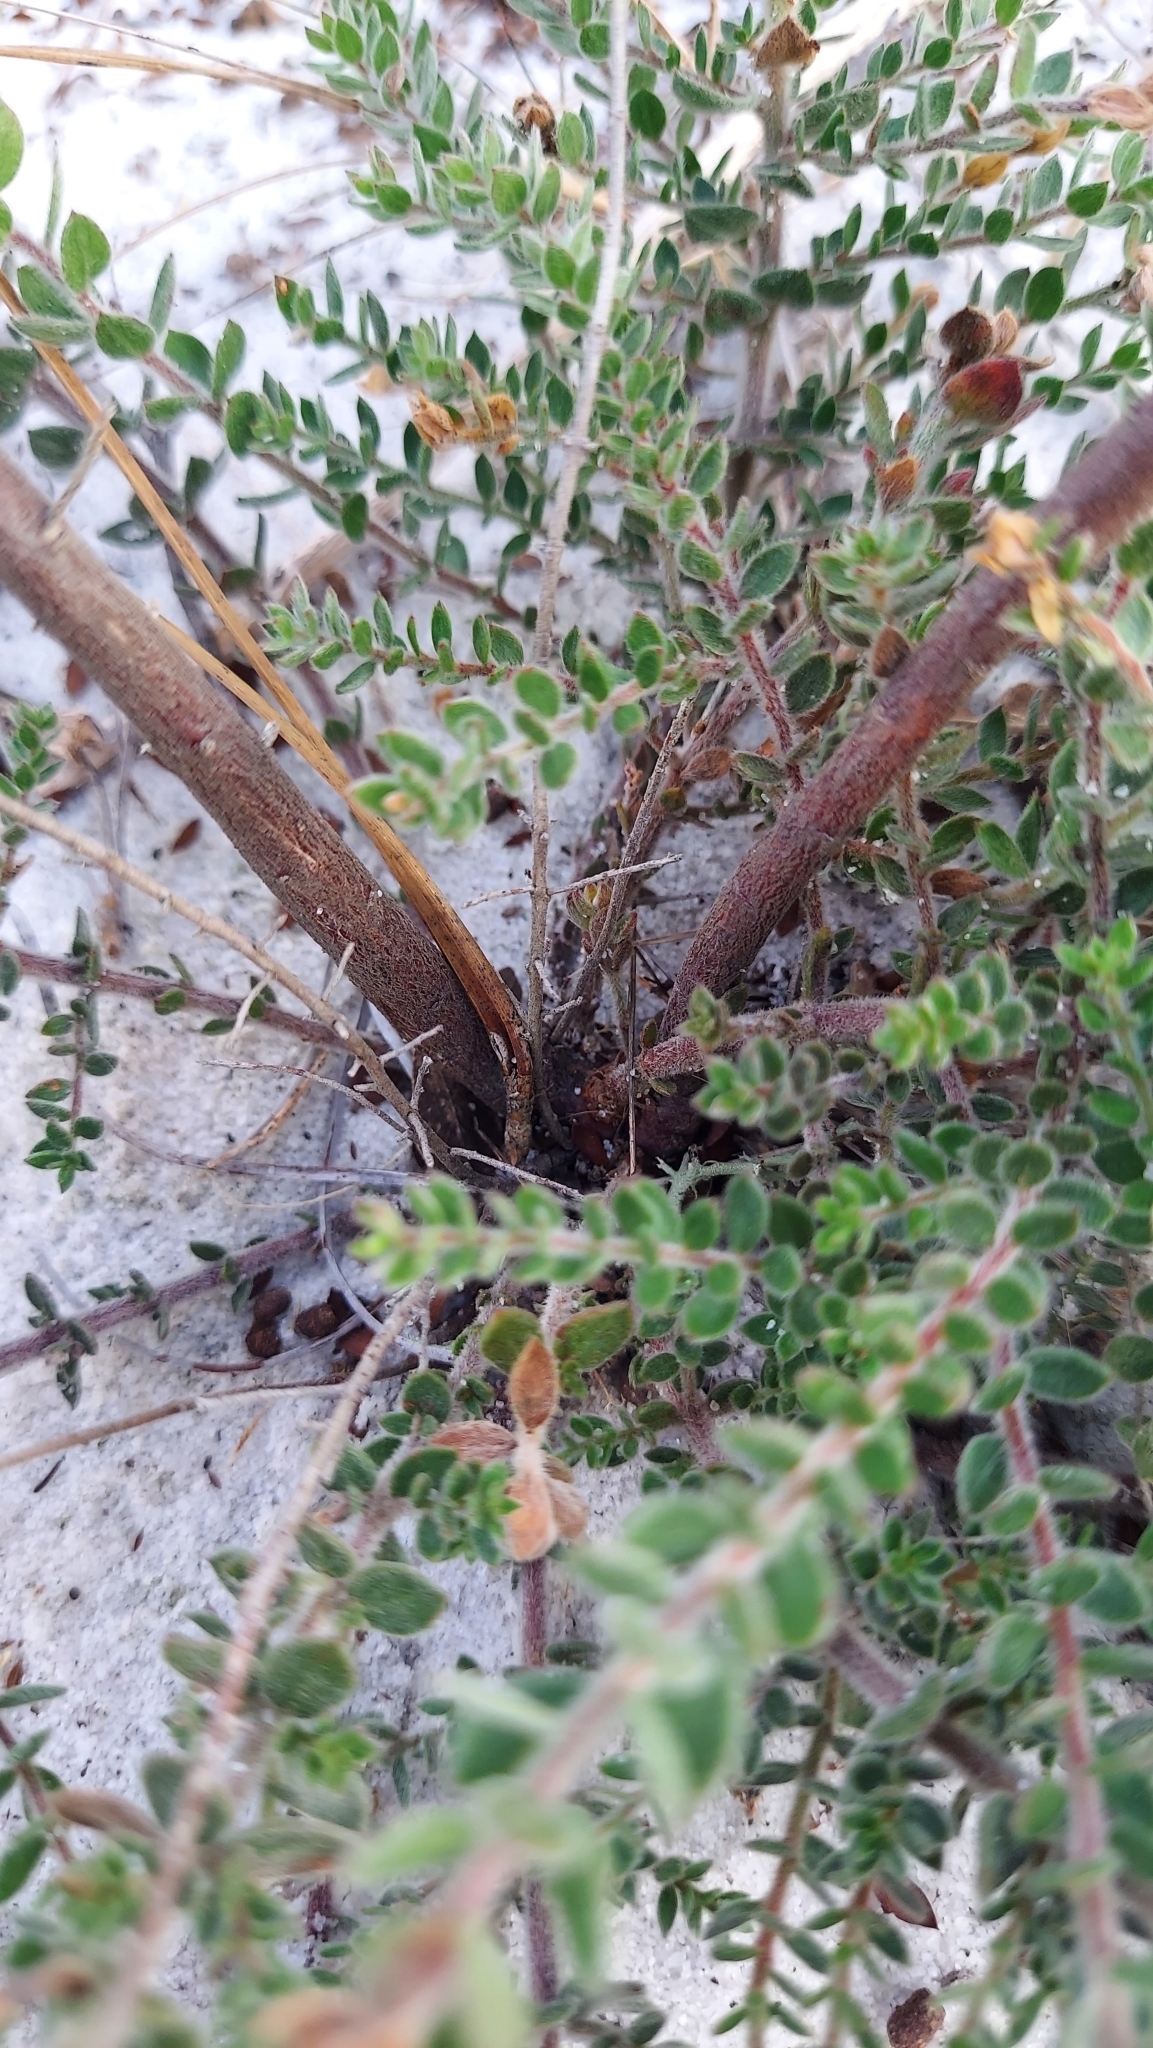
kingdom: Plantae
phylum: Tracheophyta
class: Magnoliopsida
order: Malvales
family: Cistaceae
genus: Lechea
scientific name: Lechea cernua
